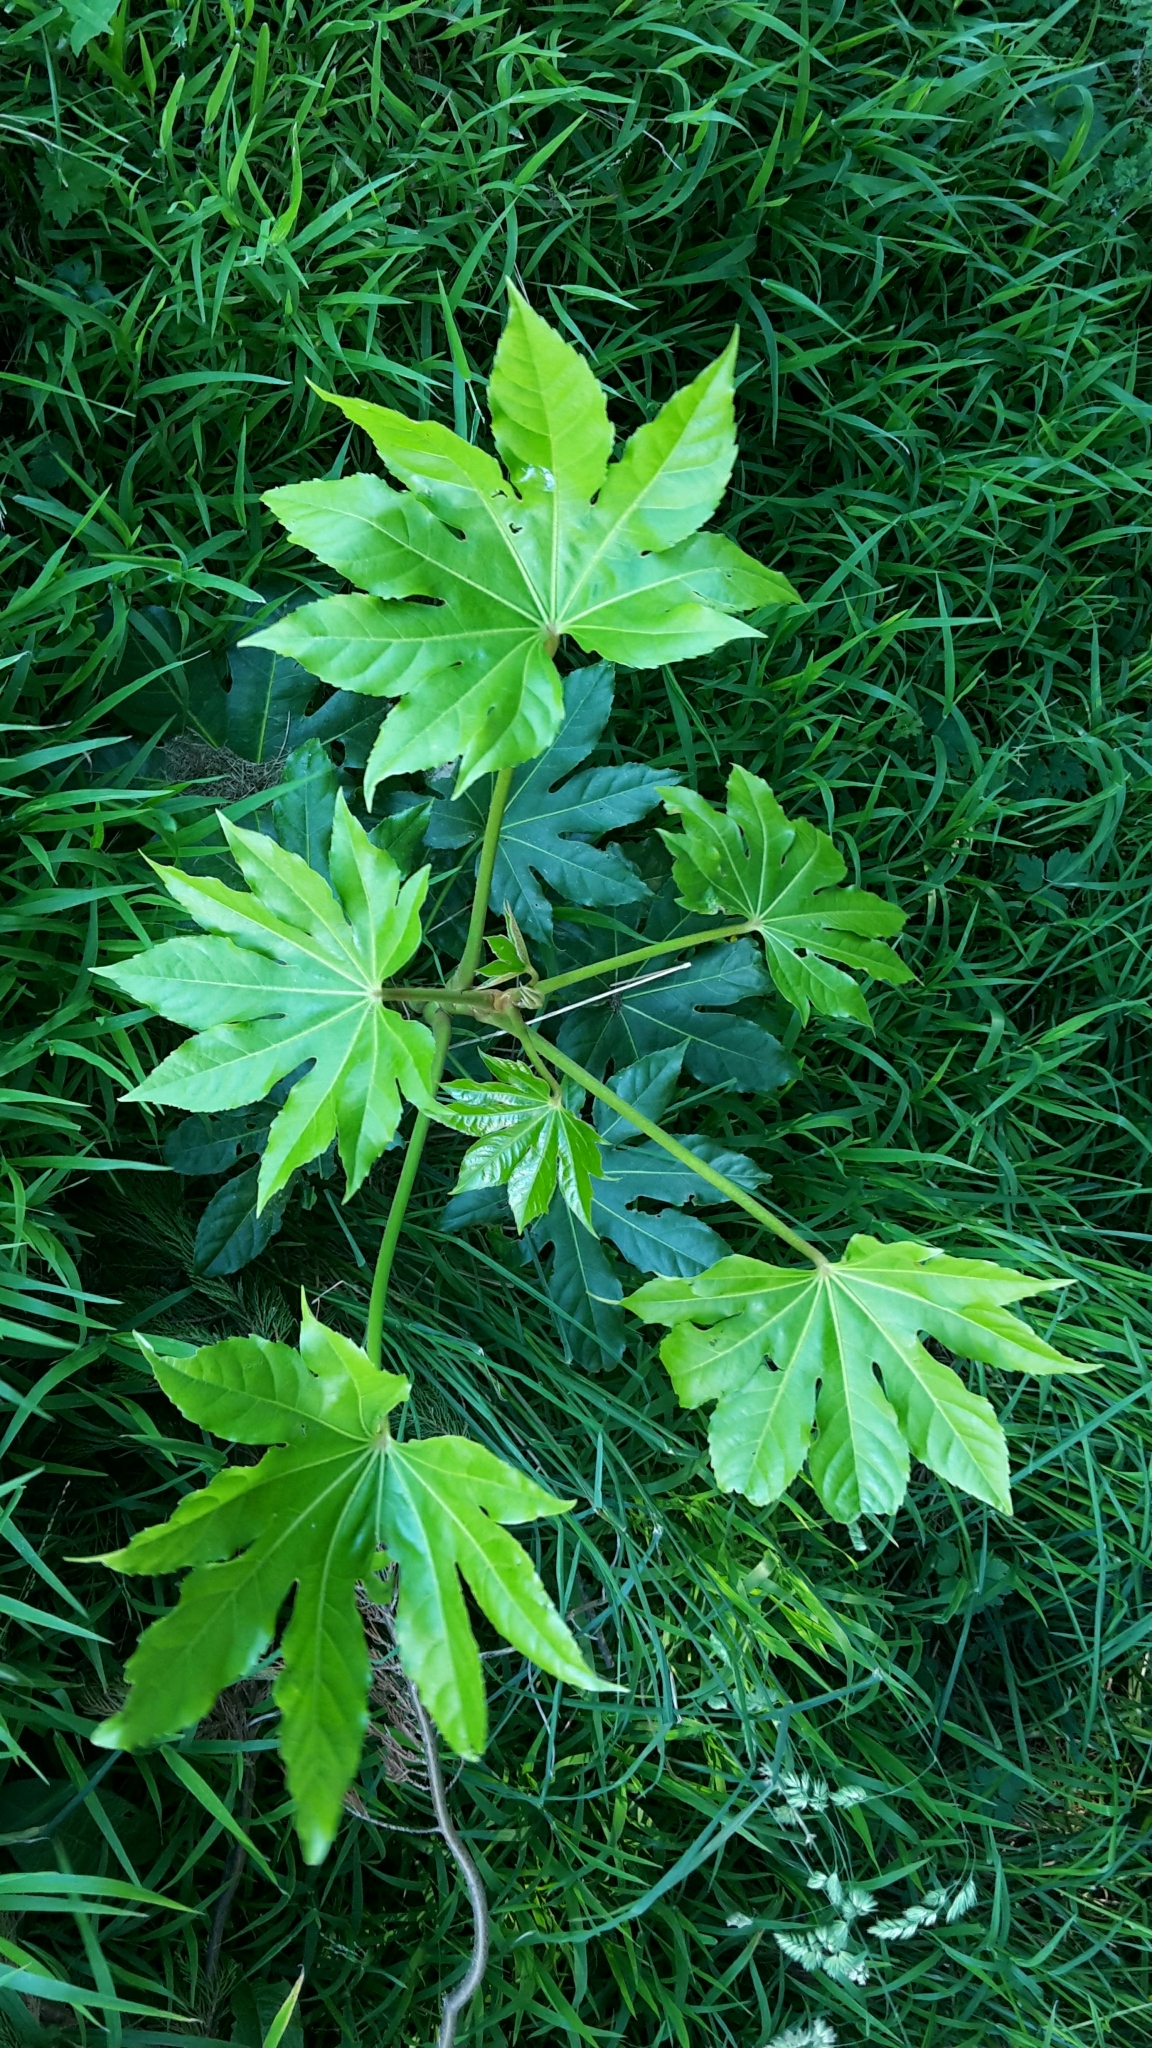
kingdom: Plantae
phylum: Tracheophyta
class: Magnoliopsida
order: Apiales
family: Araliaceae
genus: Fatsia
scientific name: Fatsia japonica
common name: Fatsia
